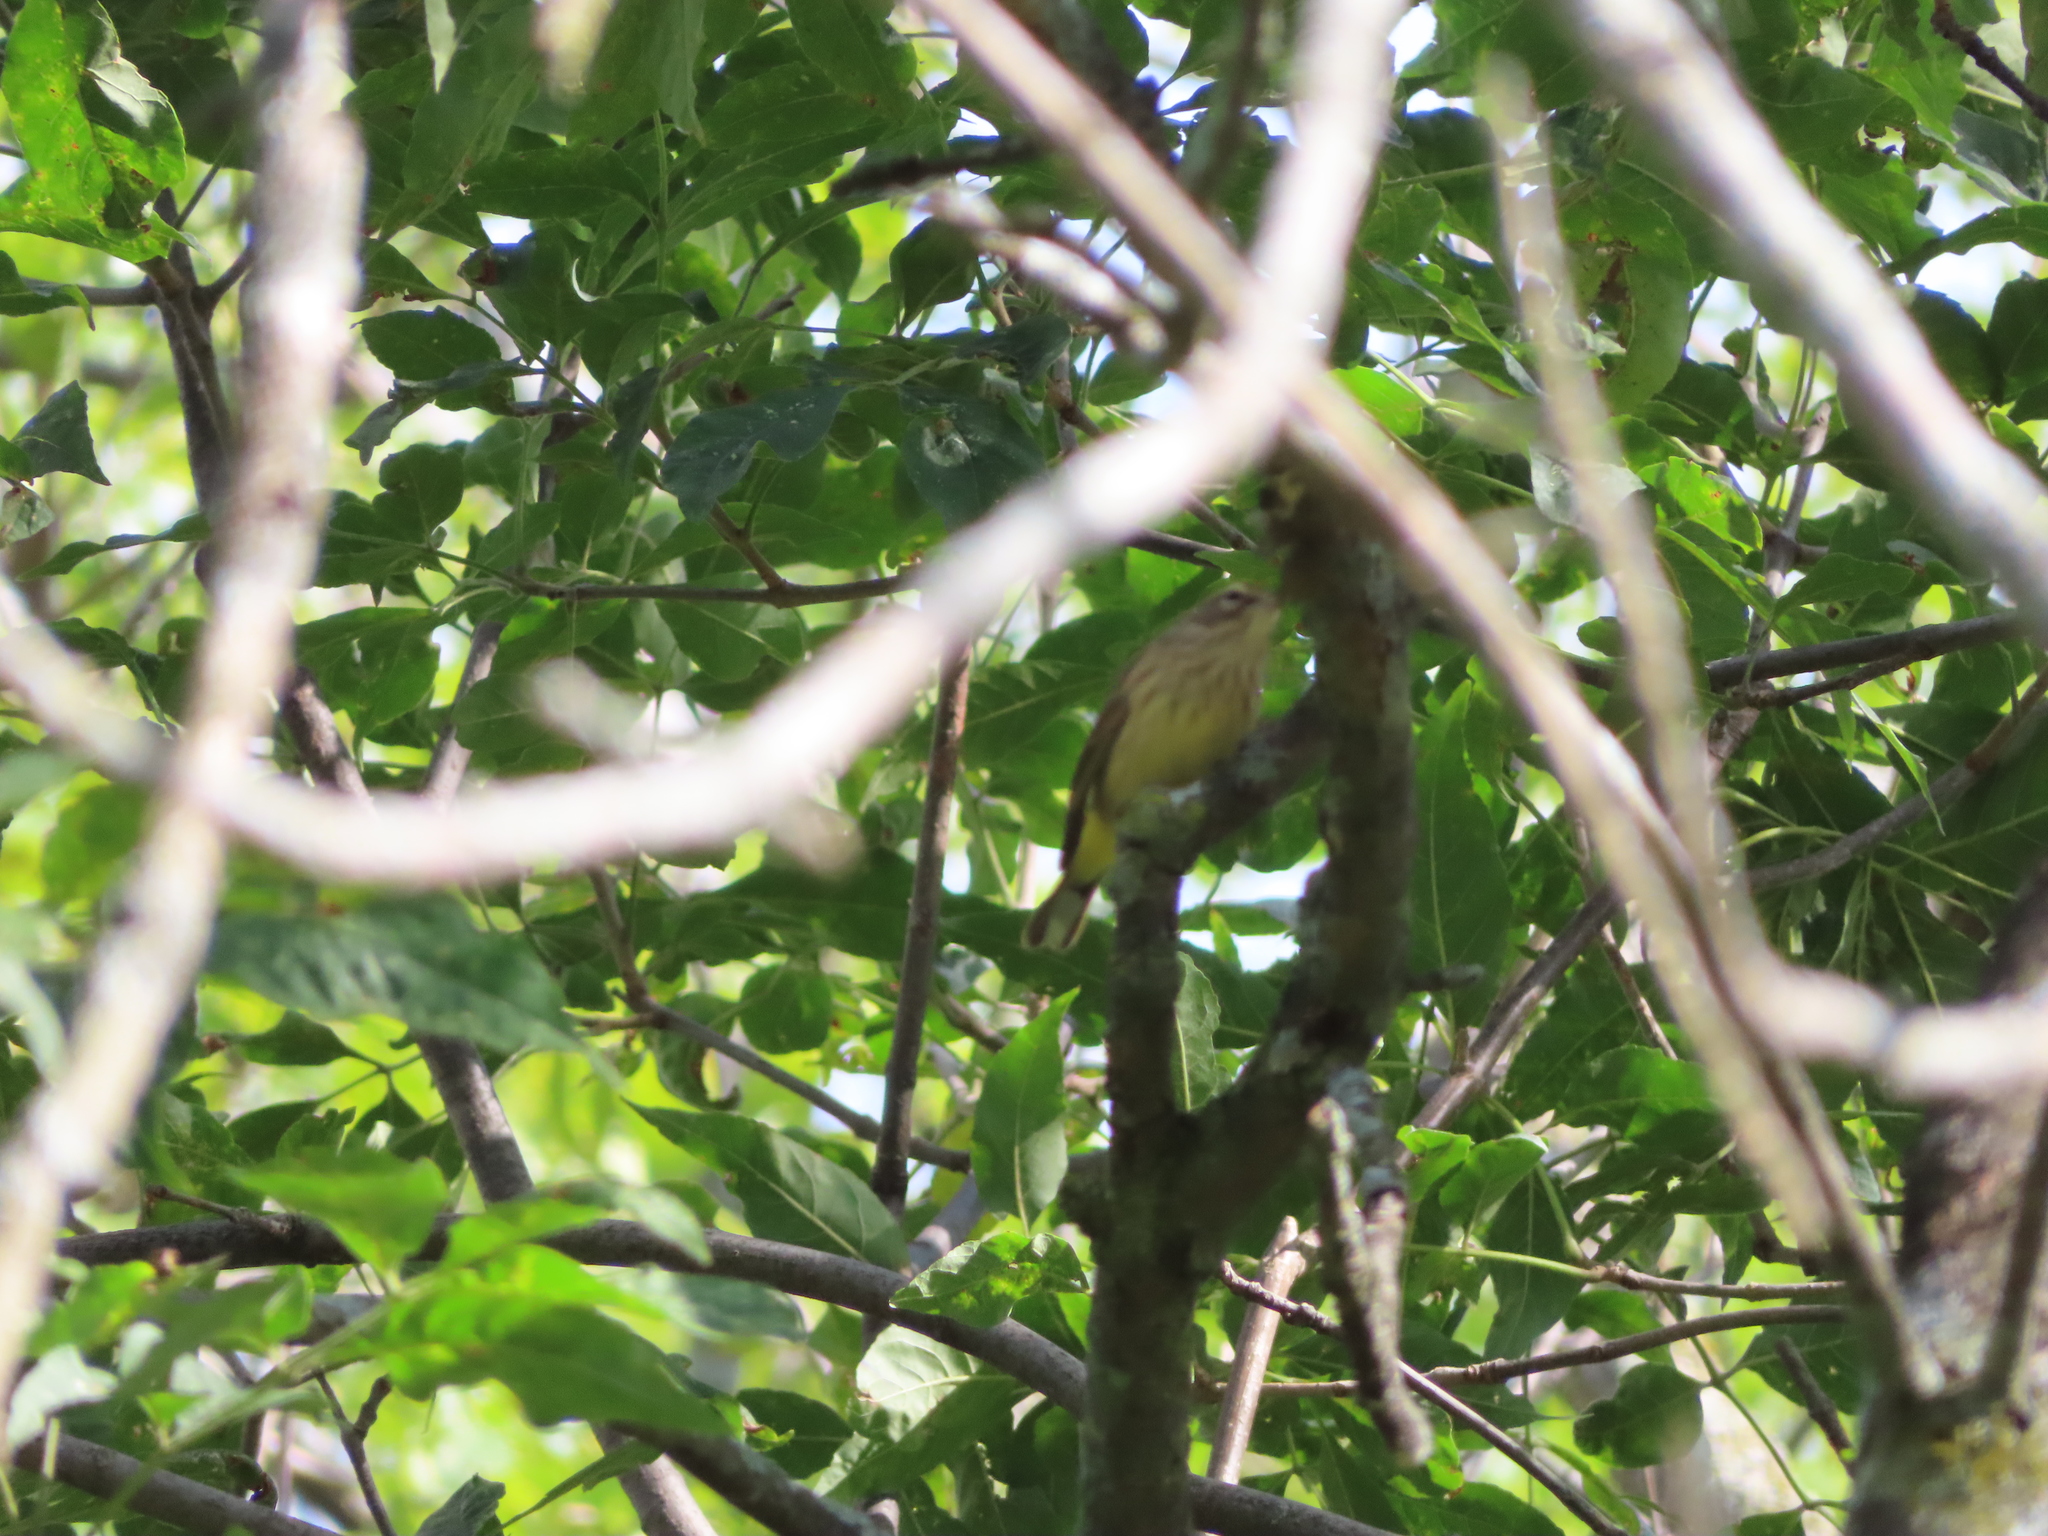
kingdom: Animalia
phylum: Chordata
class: Aves
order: Passeriformes
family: Parulidae
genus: Setophaga
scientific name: Setophaga palmarum
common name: Palm warbler
